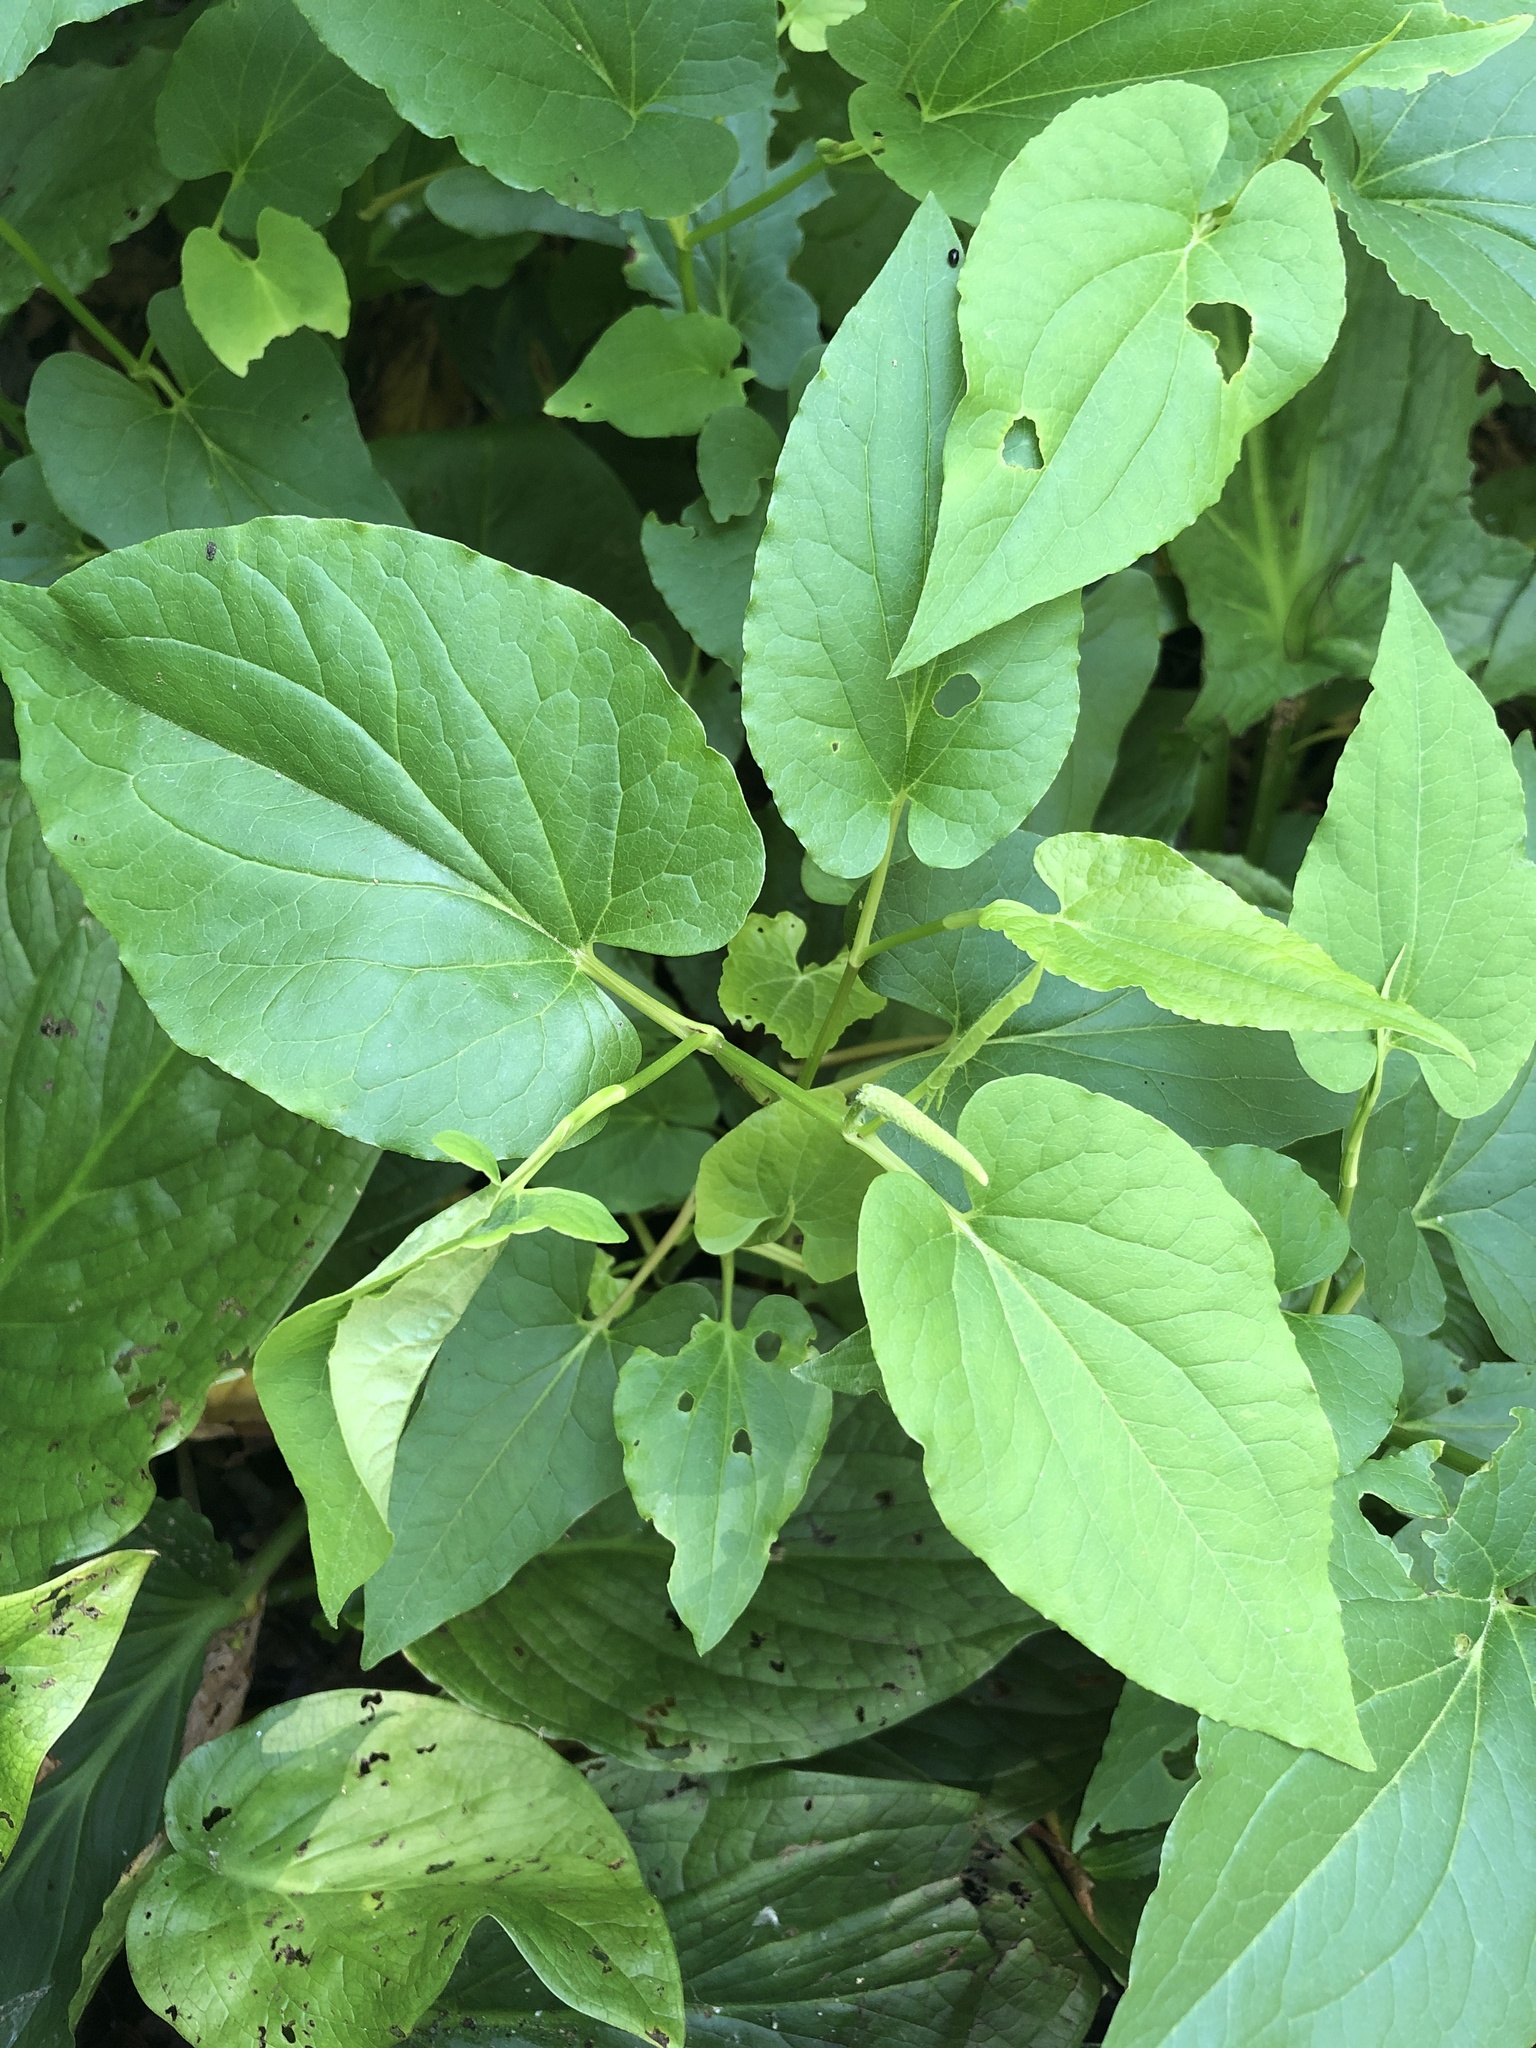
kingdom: Plantae
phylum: Tracheophyta
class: Magnoliopsida
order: Piperales
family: Saururaceae
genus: Saururus
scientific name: Saururus cernuus
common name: Lizard's-tail
